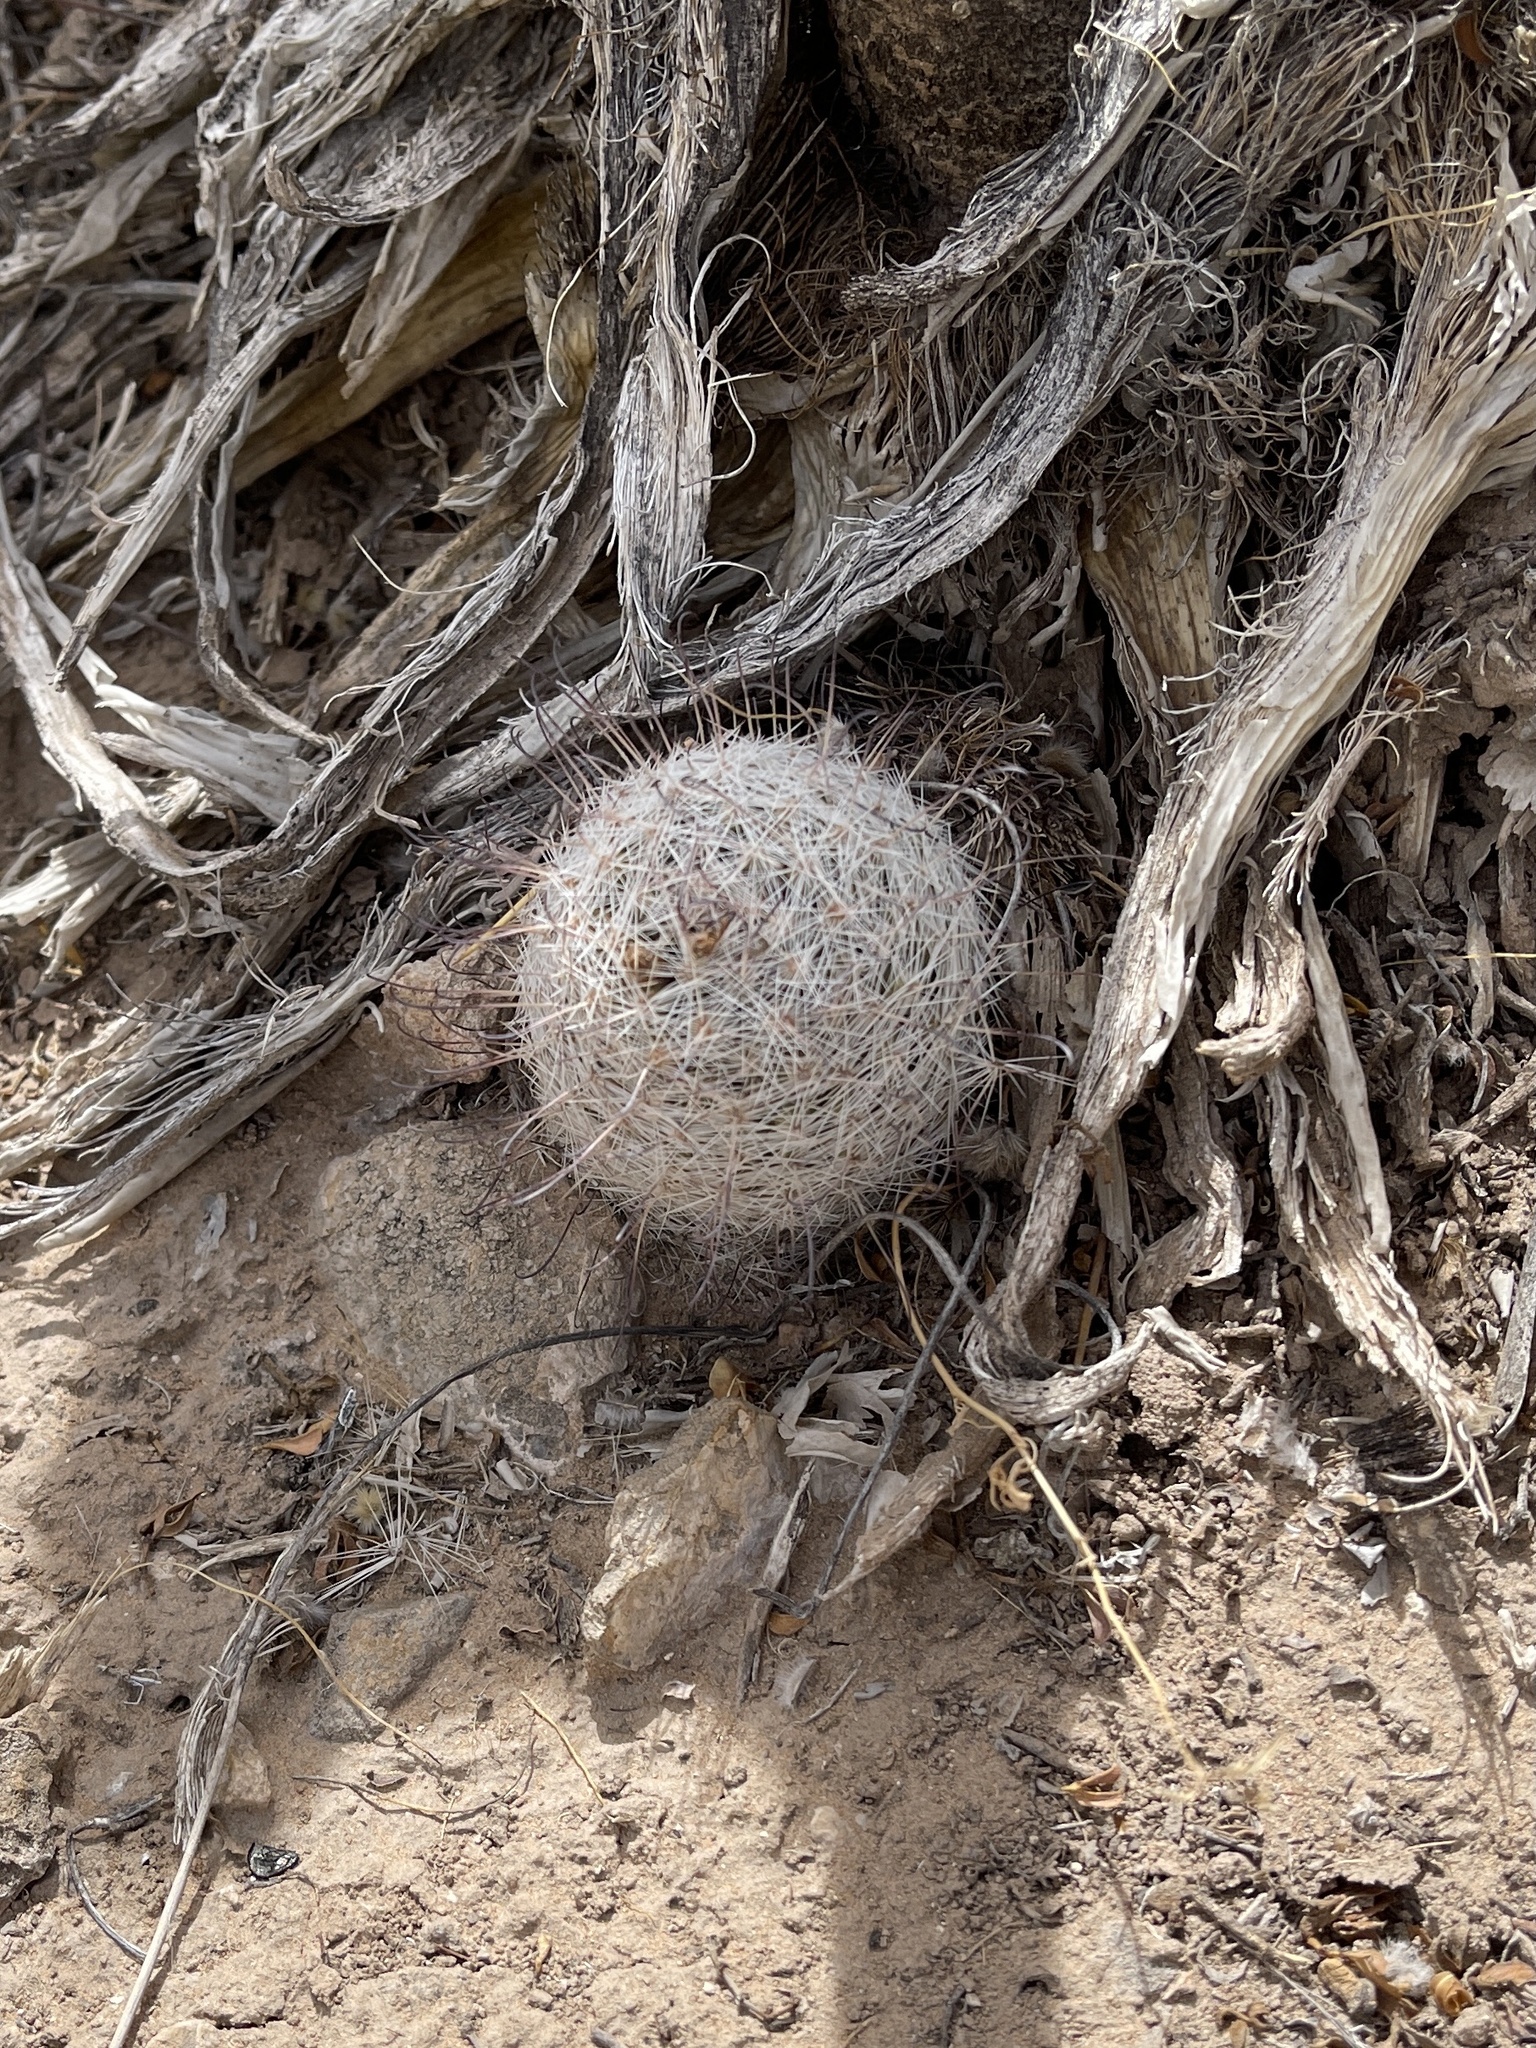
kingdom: Plantae
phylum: Tracheophyta
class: Magnoliopsida
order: Caryophyllales
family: Cactaceae
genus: Cochemiea
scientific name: Cochemiea grahamii
